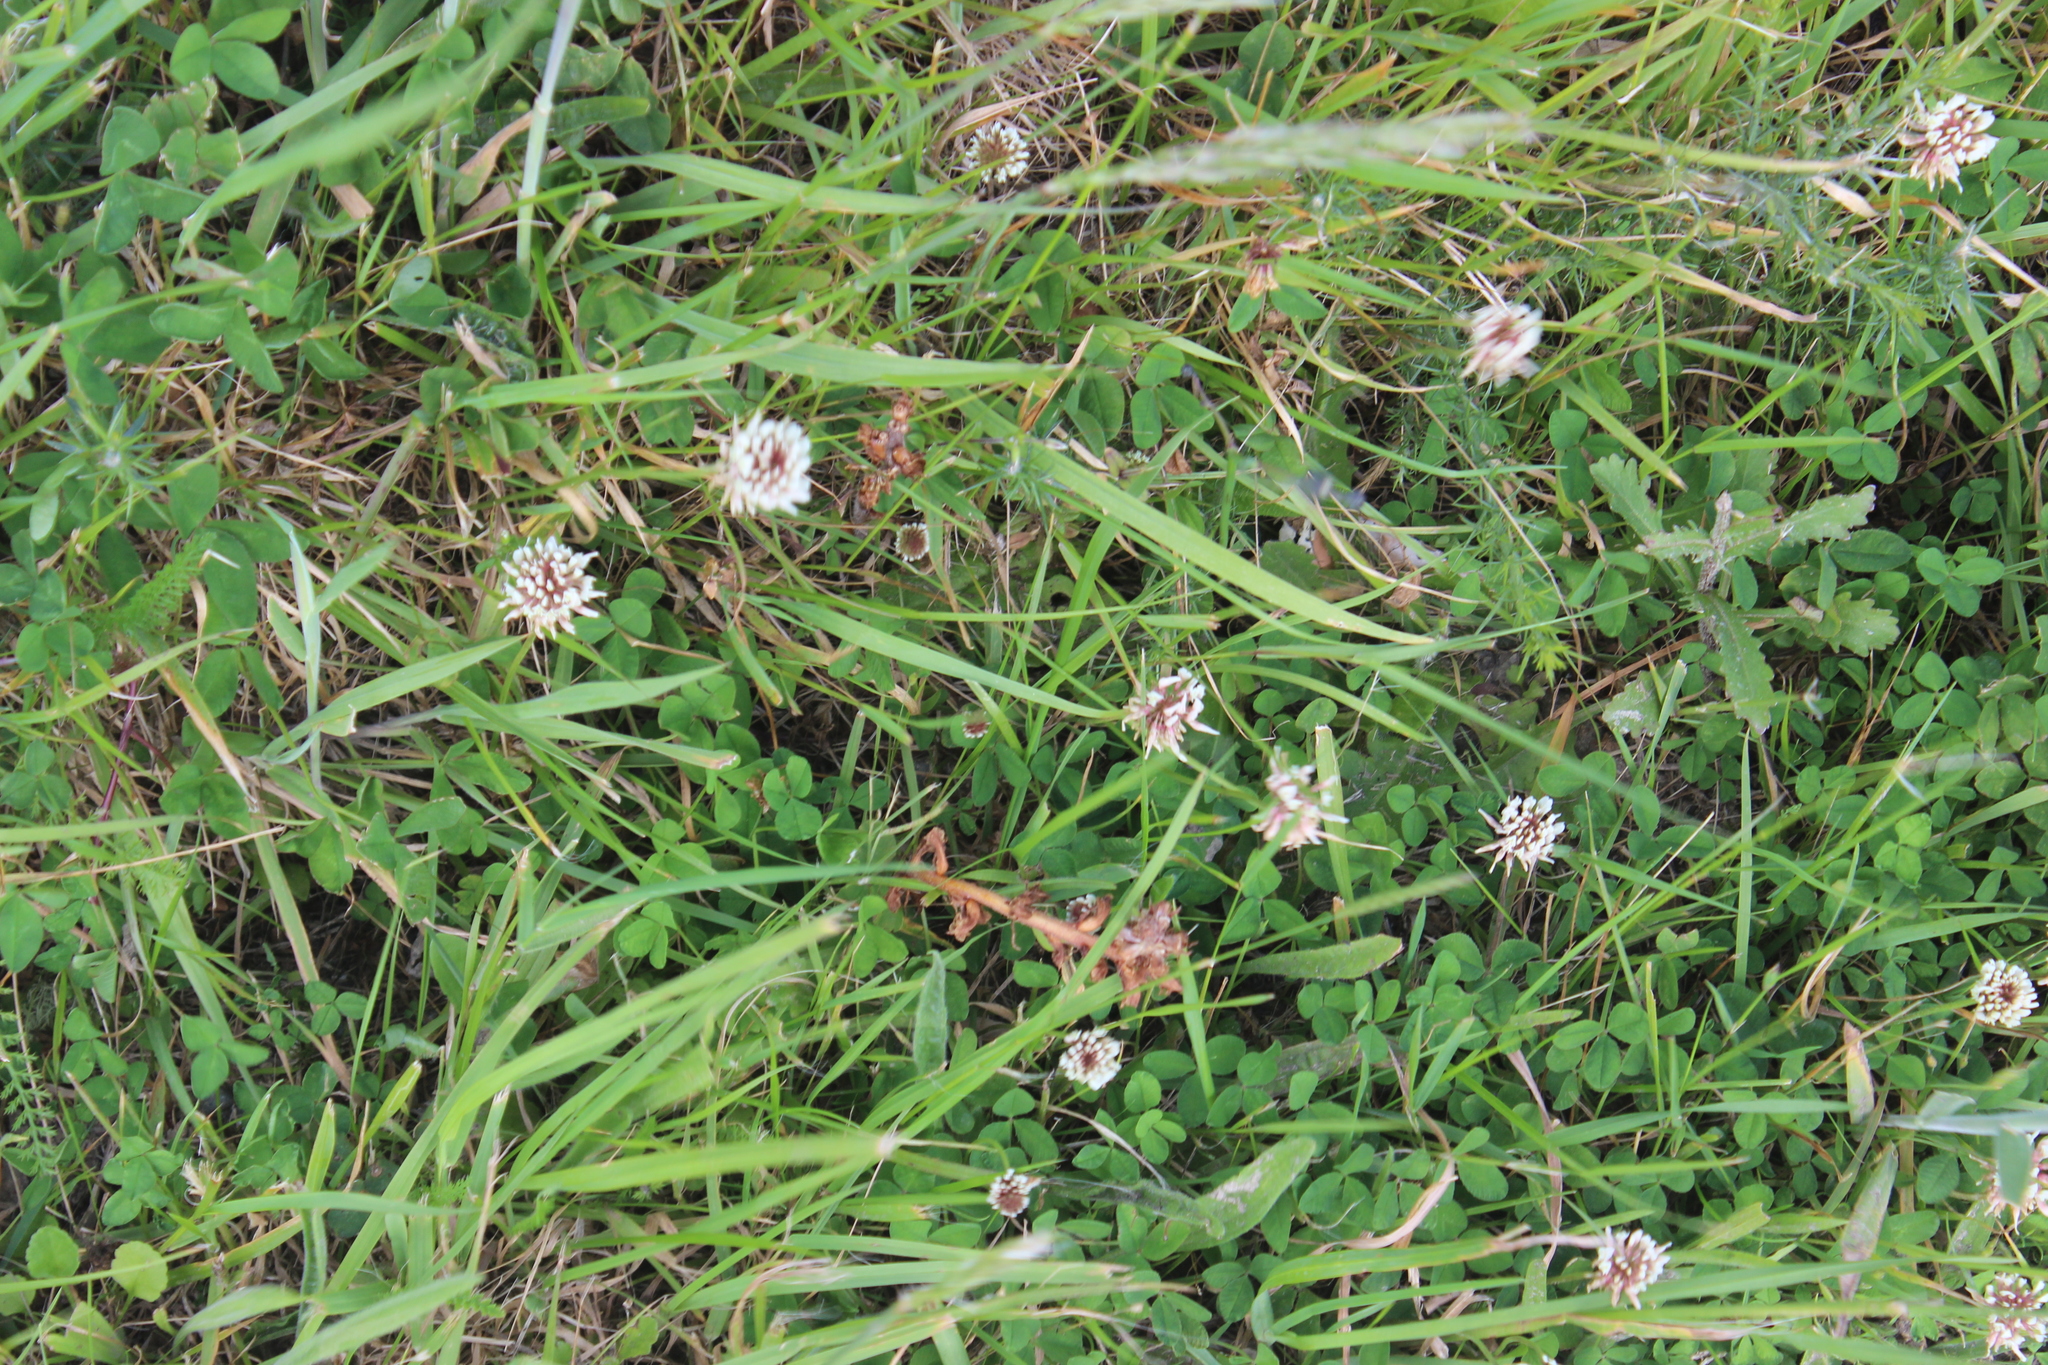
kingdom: Plantae
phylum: Tracheophyta
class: Magnoliopsida
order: Lamiales
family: Orobanchaceae
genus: Orobanche
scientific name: Orobanche minor
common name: Common broomrape
